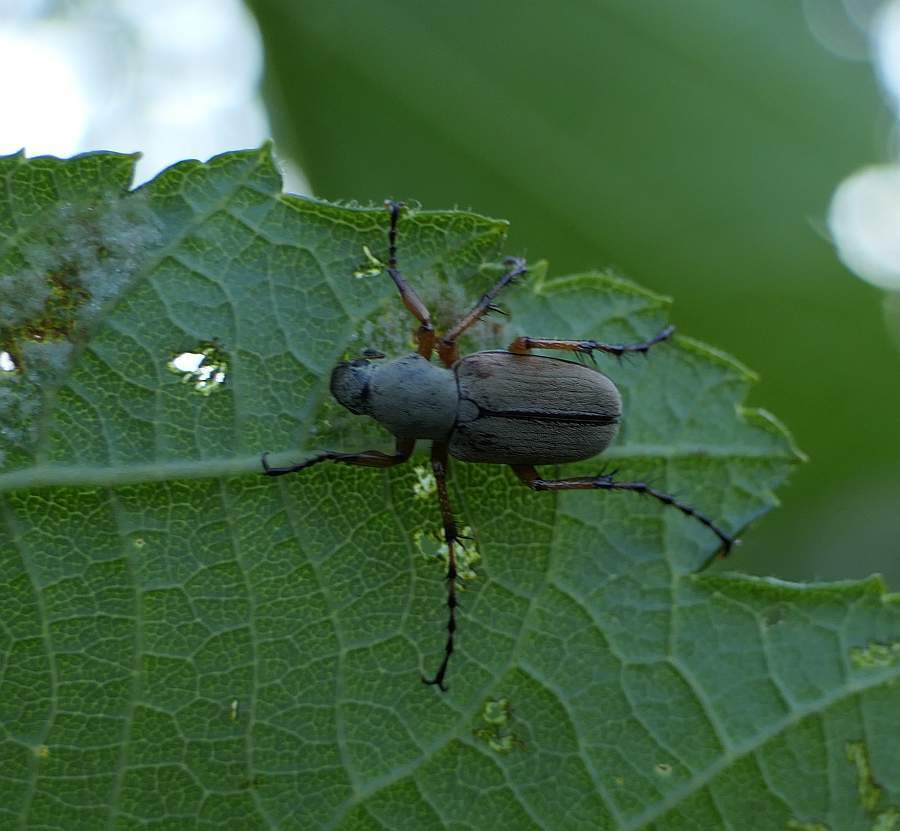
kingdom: Animalia
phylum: Arthropoda
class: Insecta
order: Coleoptera
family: Scarabaeidae
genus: Macrodactylus
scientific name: Macrodactylus subspinosus
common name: American rose chafer
